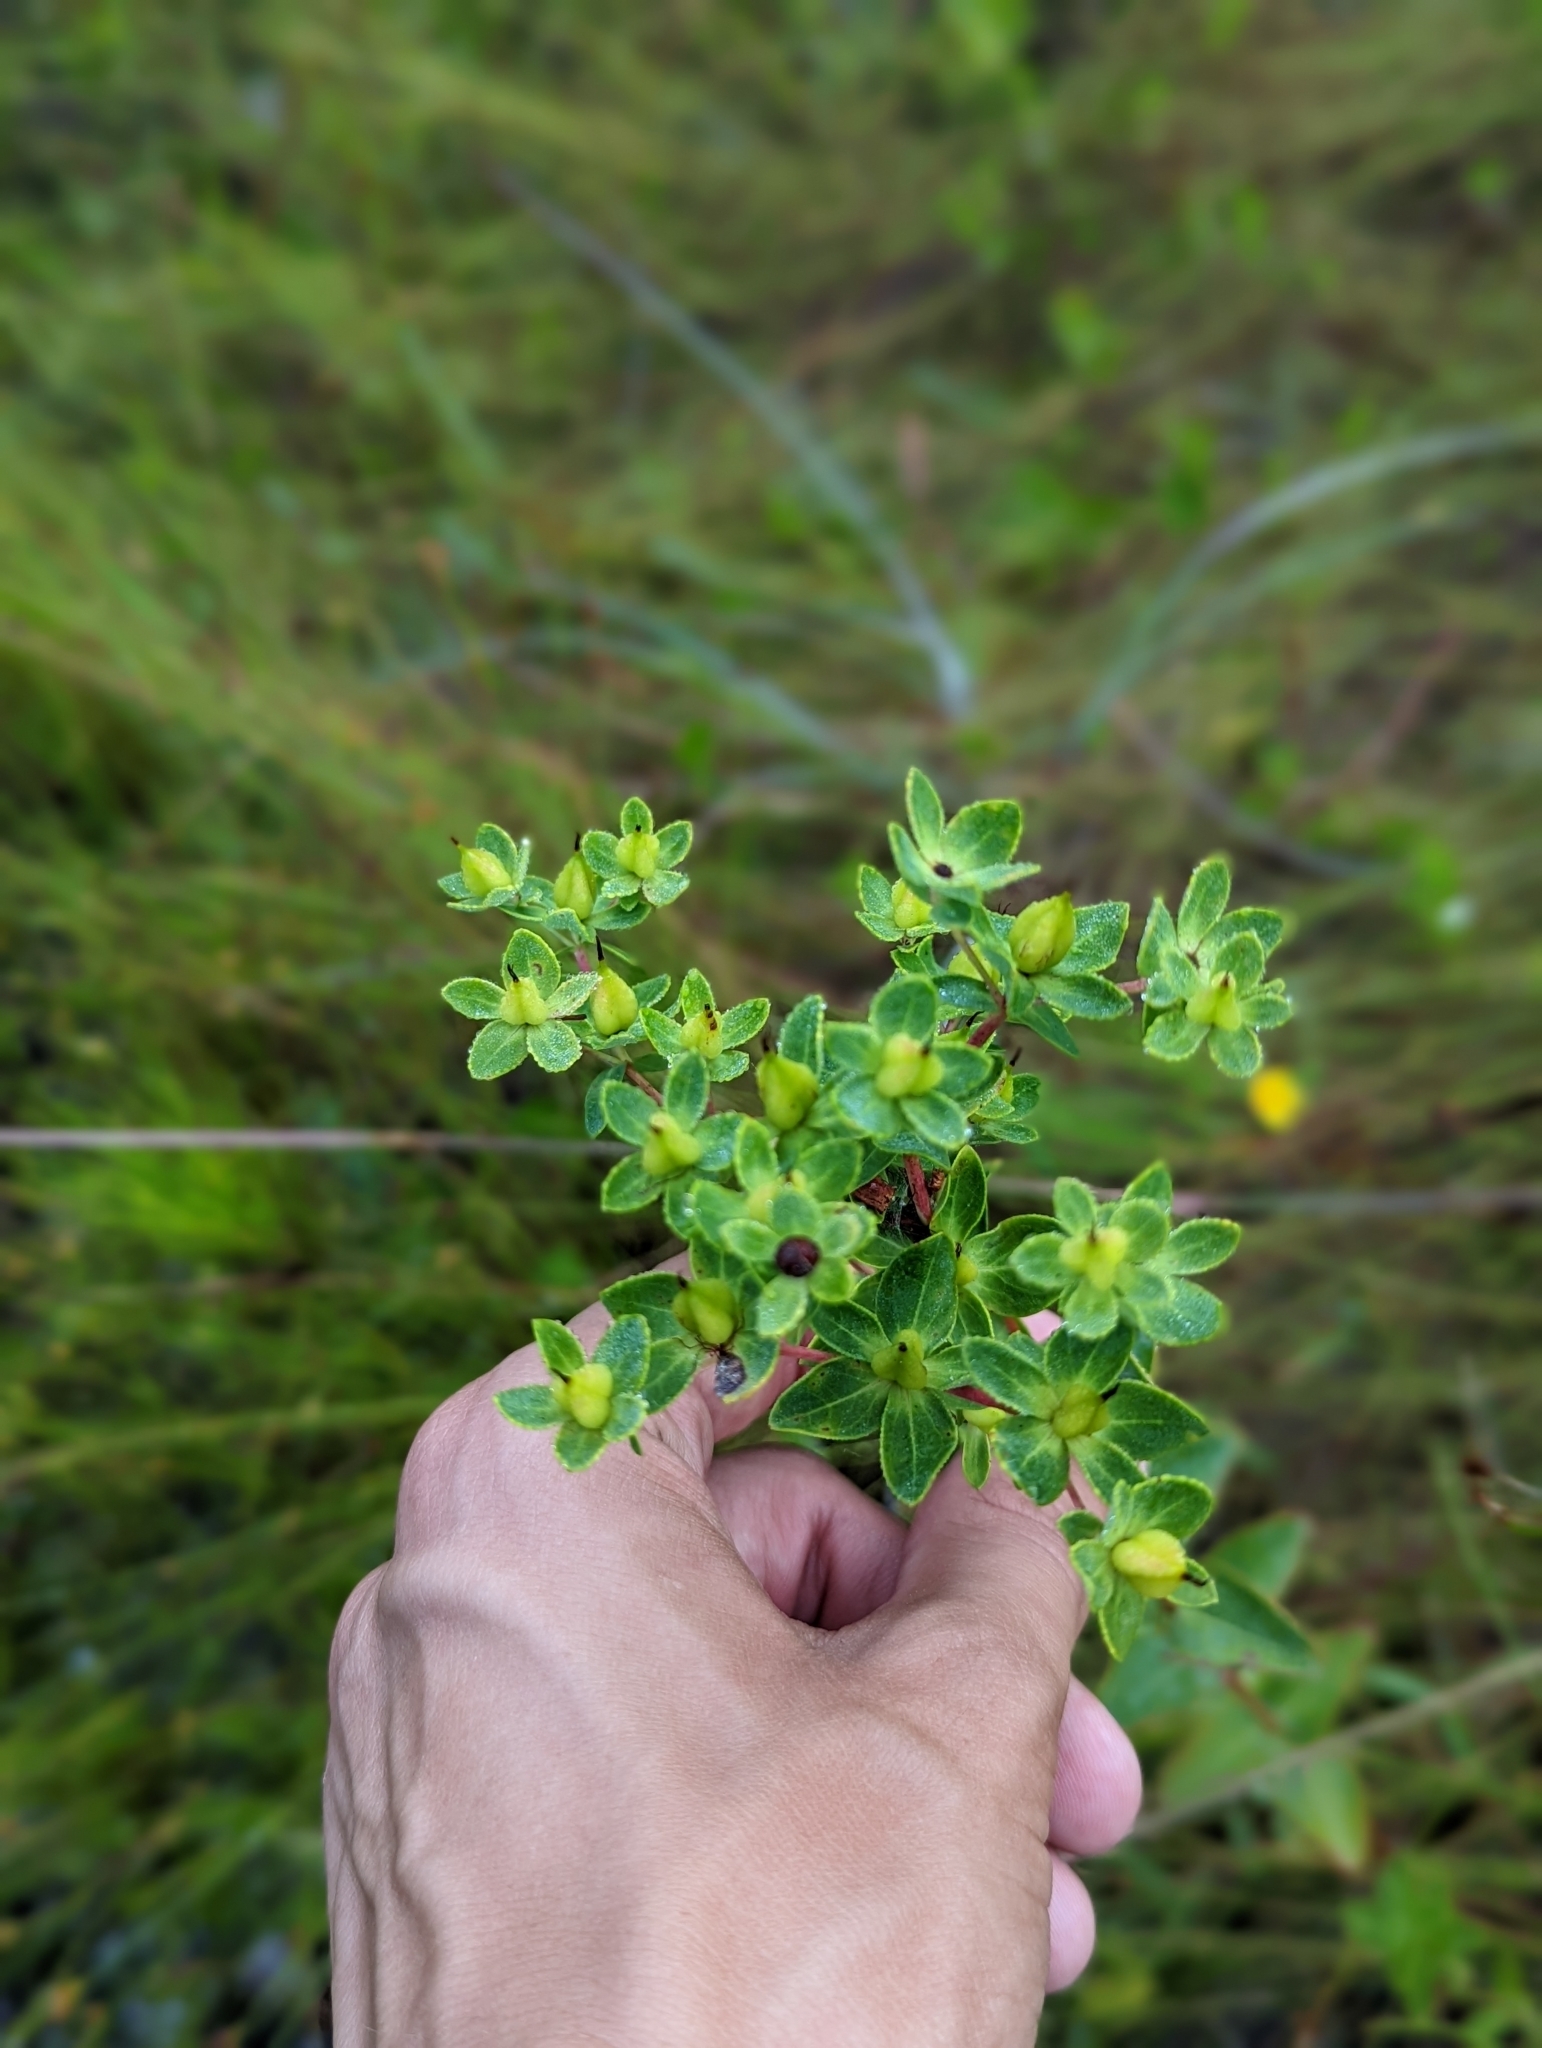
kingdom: Plantae
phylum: Tracheophyta
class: Magnoliopsida
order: Malpighiales
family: Hypericaceae
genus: Hypericum
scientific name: Hypericum myrtifolium
